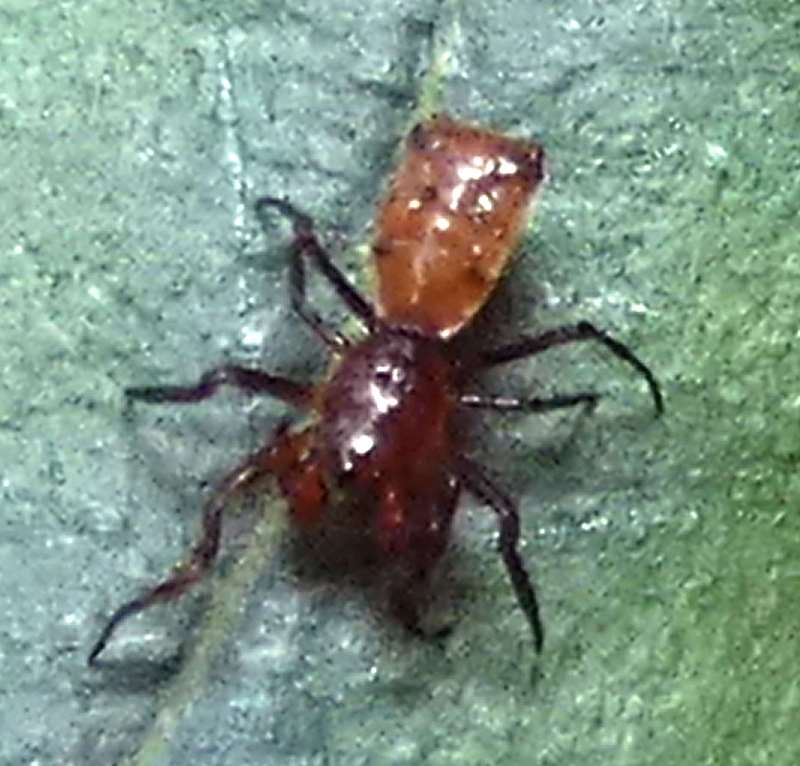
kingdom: Animalia
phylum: Arthropoda
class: Arachnida
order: Araneae
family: Araneidae
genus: Micrathena
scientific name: Micrathena picta
